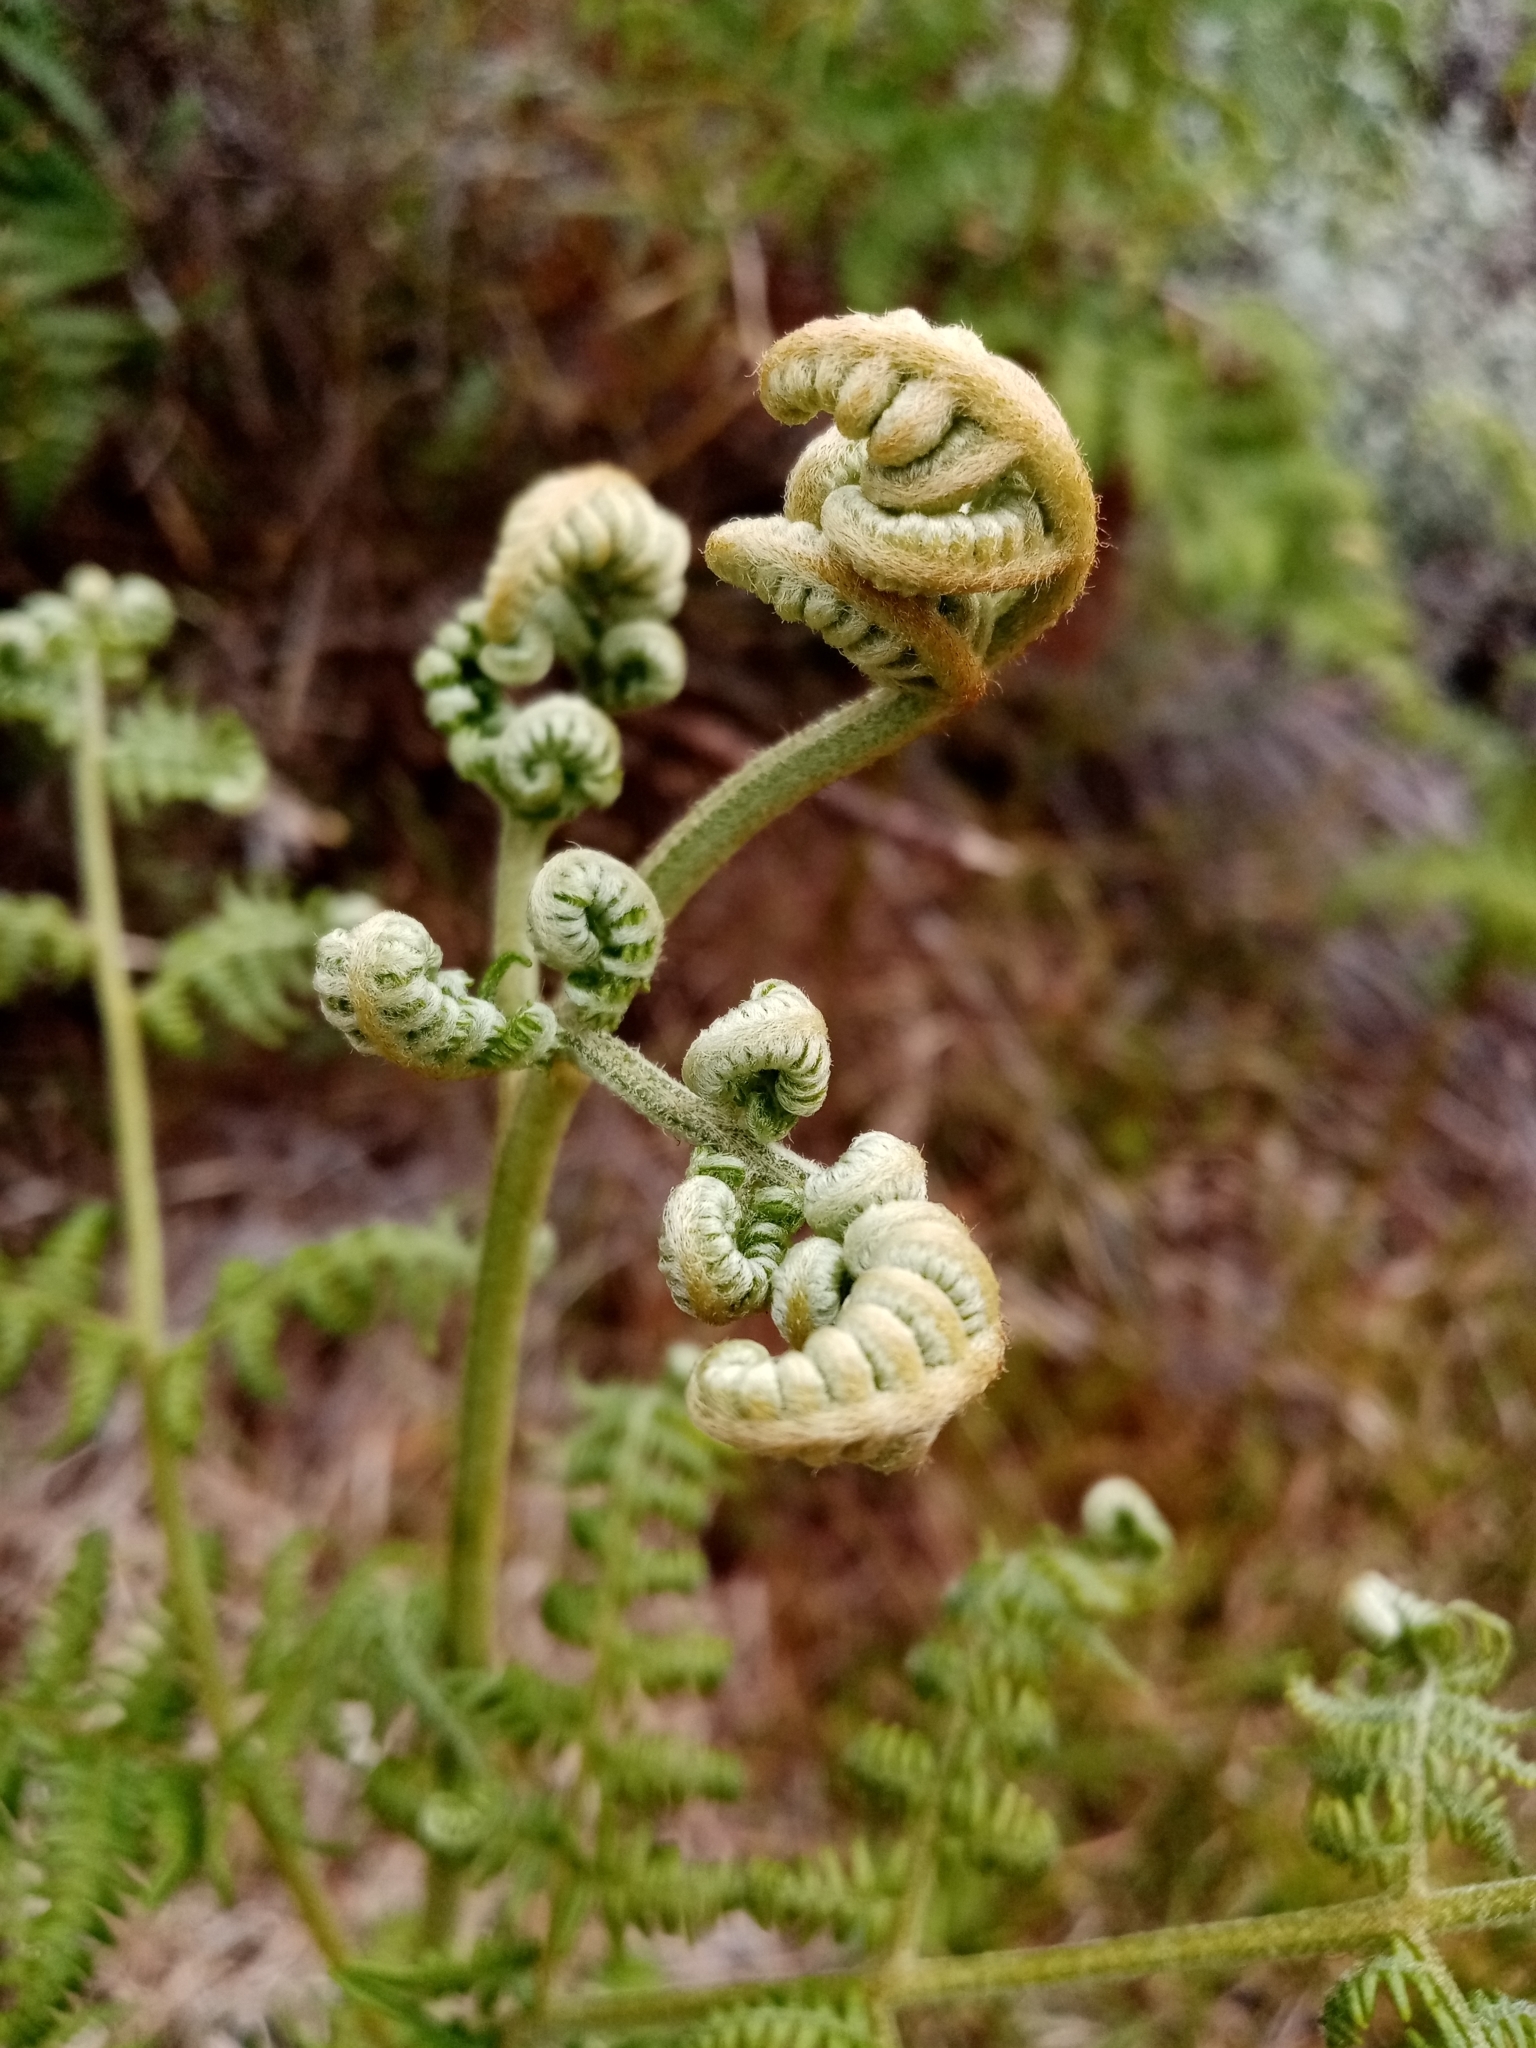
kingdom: Plantae
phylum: Tracheophyta
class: Polypodiopsida
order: Polypodiales
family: Dennstaedtiaceae
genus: Pteridium
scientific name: Pteridium aquilinum
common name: Bracken
